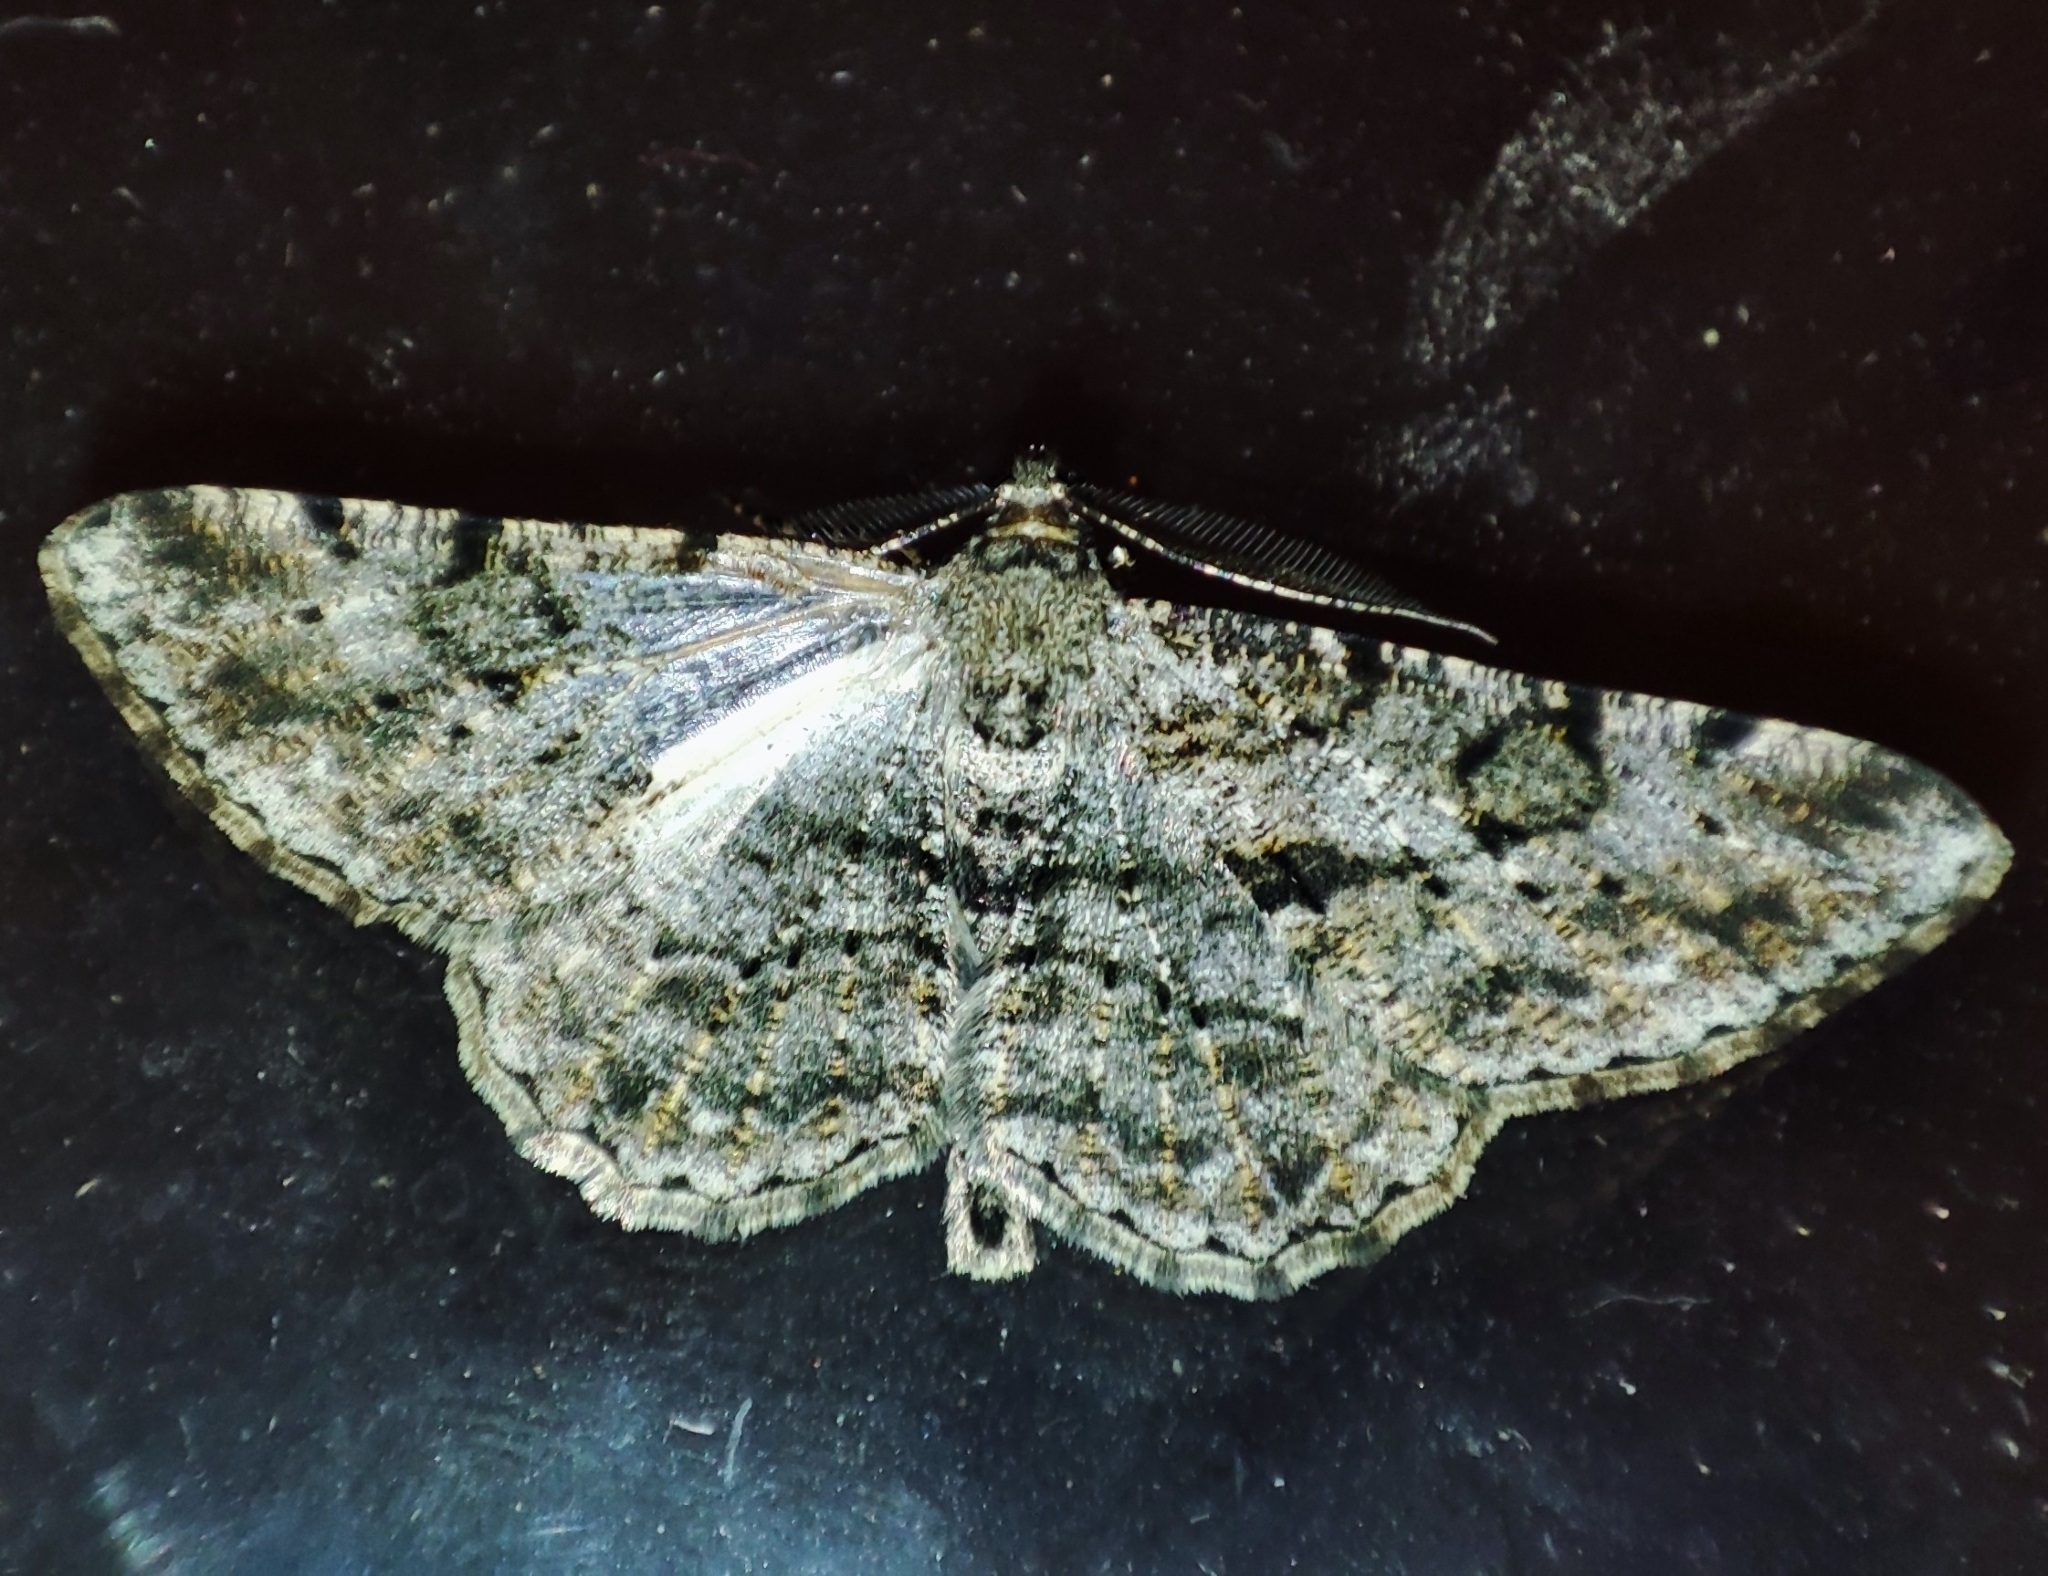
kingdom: Animalia
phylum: Arthropoda
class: Insecta
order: Lepidoptera
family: Geometridae
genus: Peribatodes
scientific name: Peribatodes rhomboidaria
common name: Willow beauty
